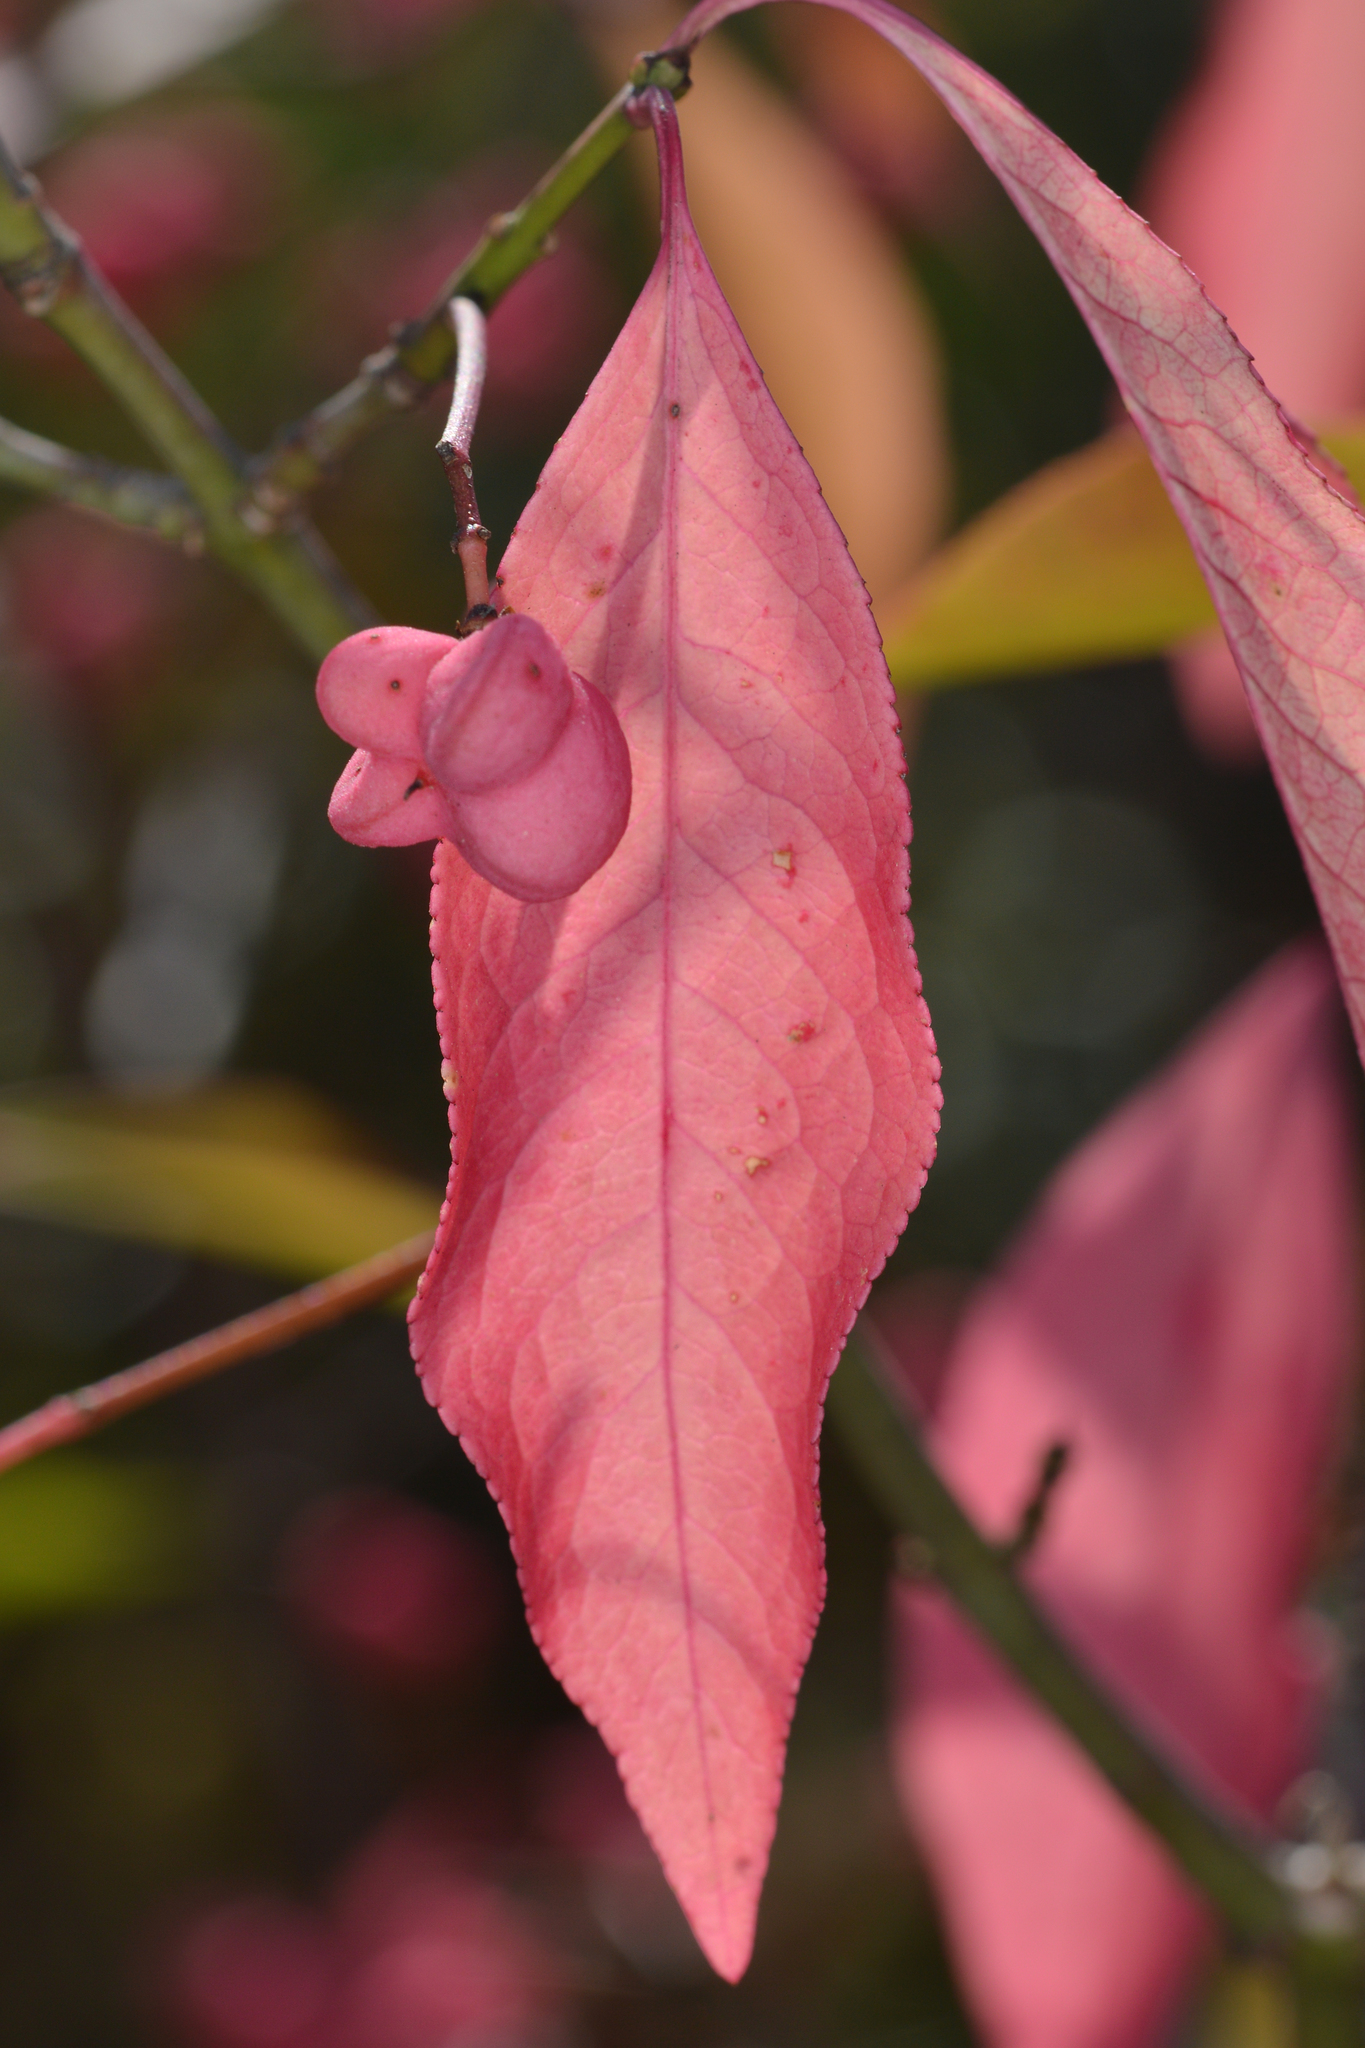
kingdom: Plantae
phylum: Tracheophyta
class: Magnoliopsida
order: Celastrales
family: Celastraceae
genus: Euonymus
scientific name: Euonymus europaeus
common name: Spindle
